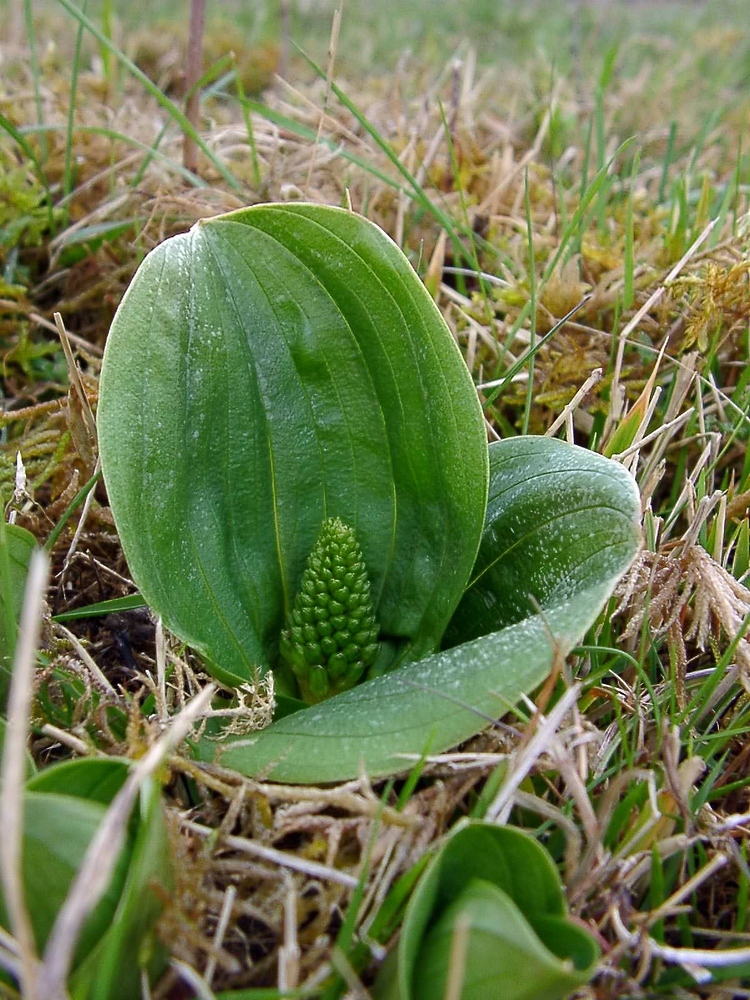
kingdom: Plantae
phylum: Tracheophyta
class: Liliopsida
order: Asparagales
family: Orchidaceae
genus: Neottia
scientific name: Neottia ovata
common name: Common twayblade
